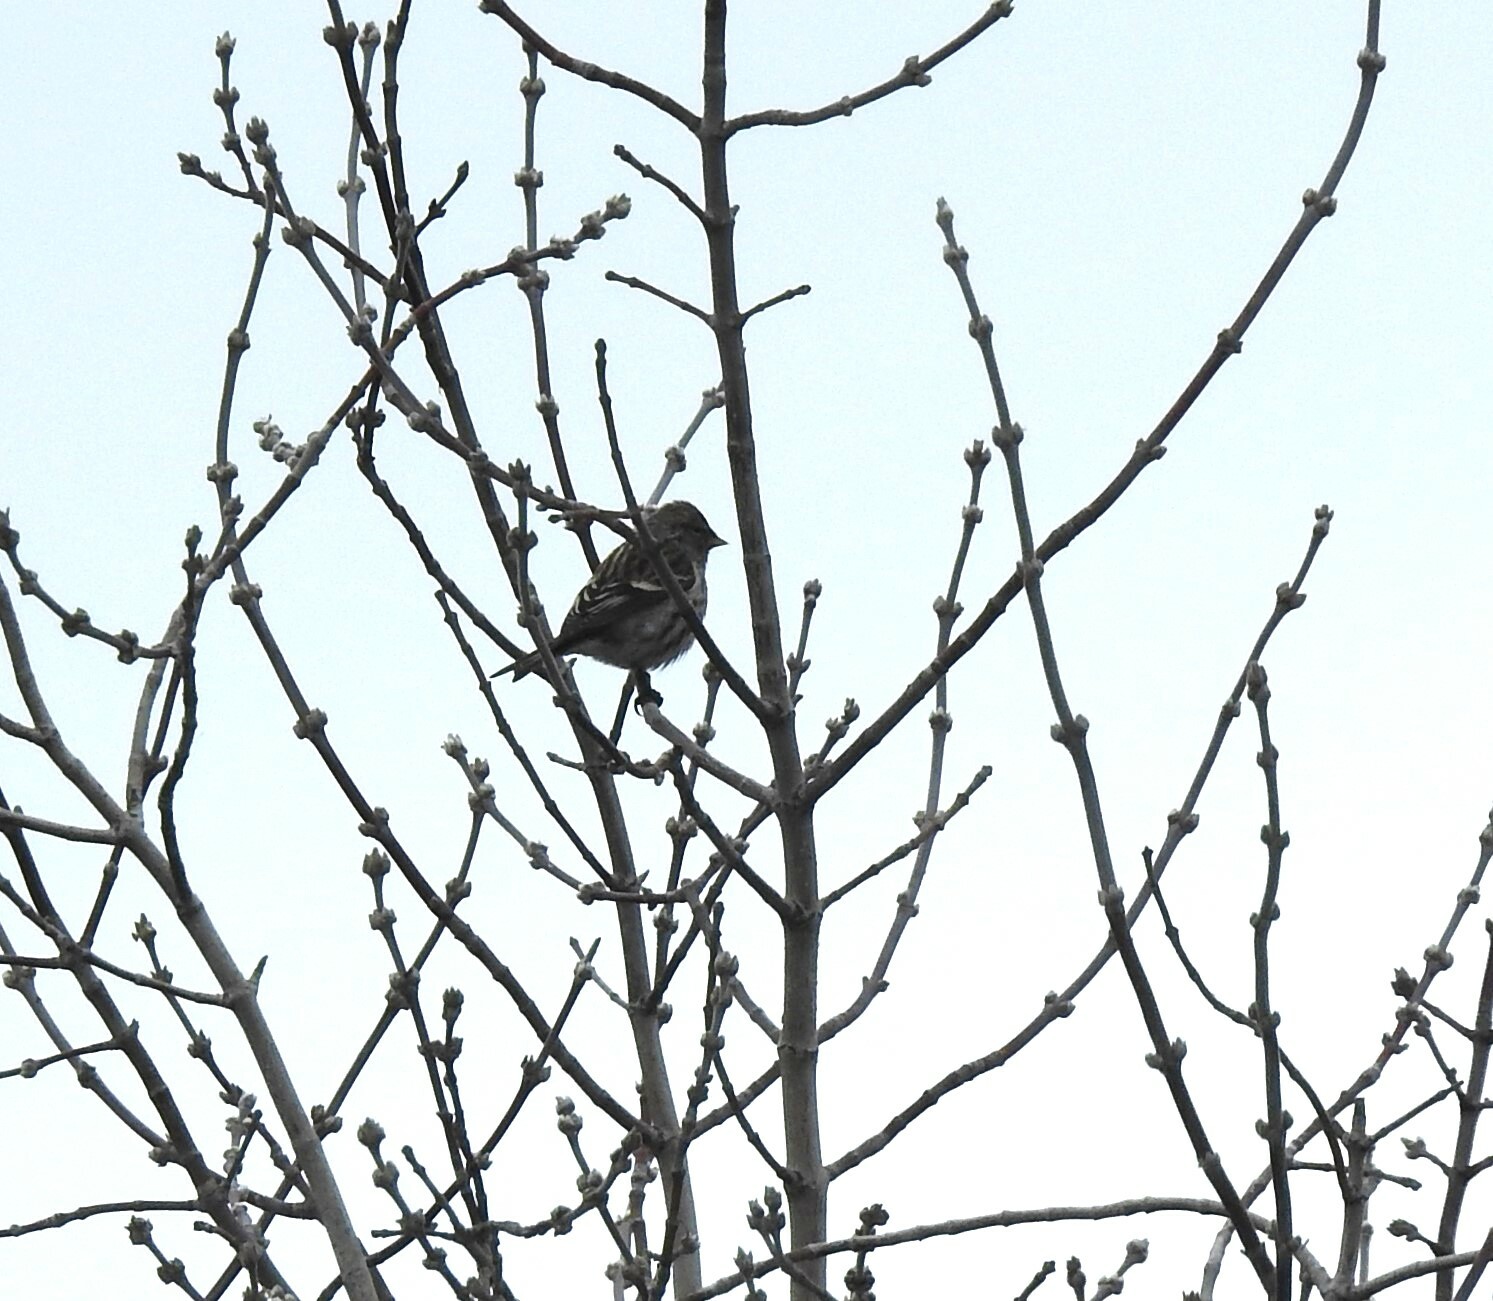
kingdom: Animalia
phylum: Chordata
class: Aves
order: Passeriformes
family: Fringillidae
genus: Acanthis
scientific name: Acanthis flammea
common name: Common redpoll
